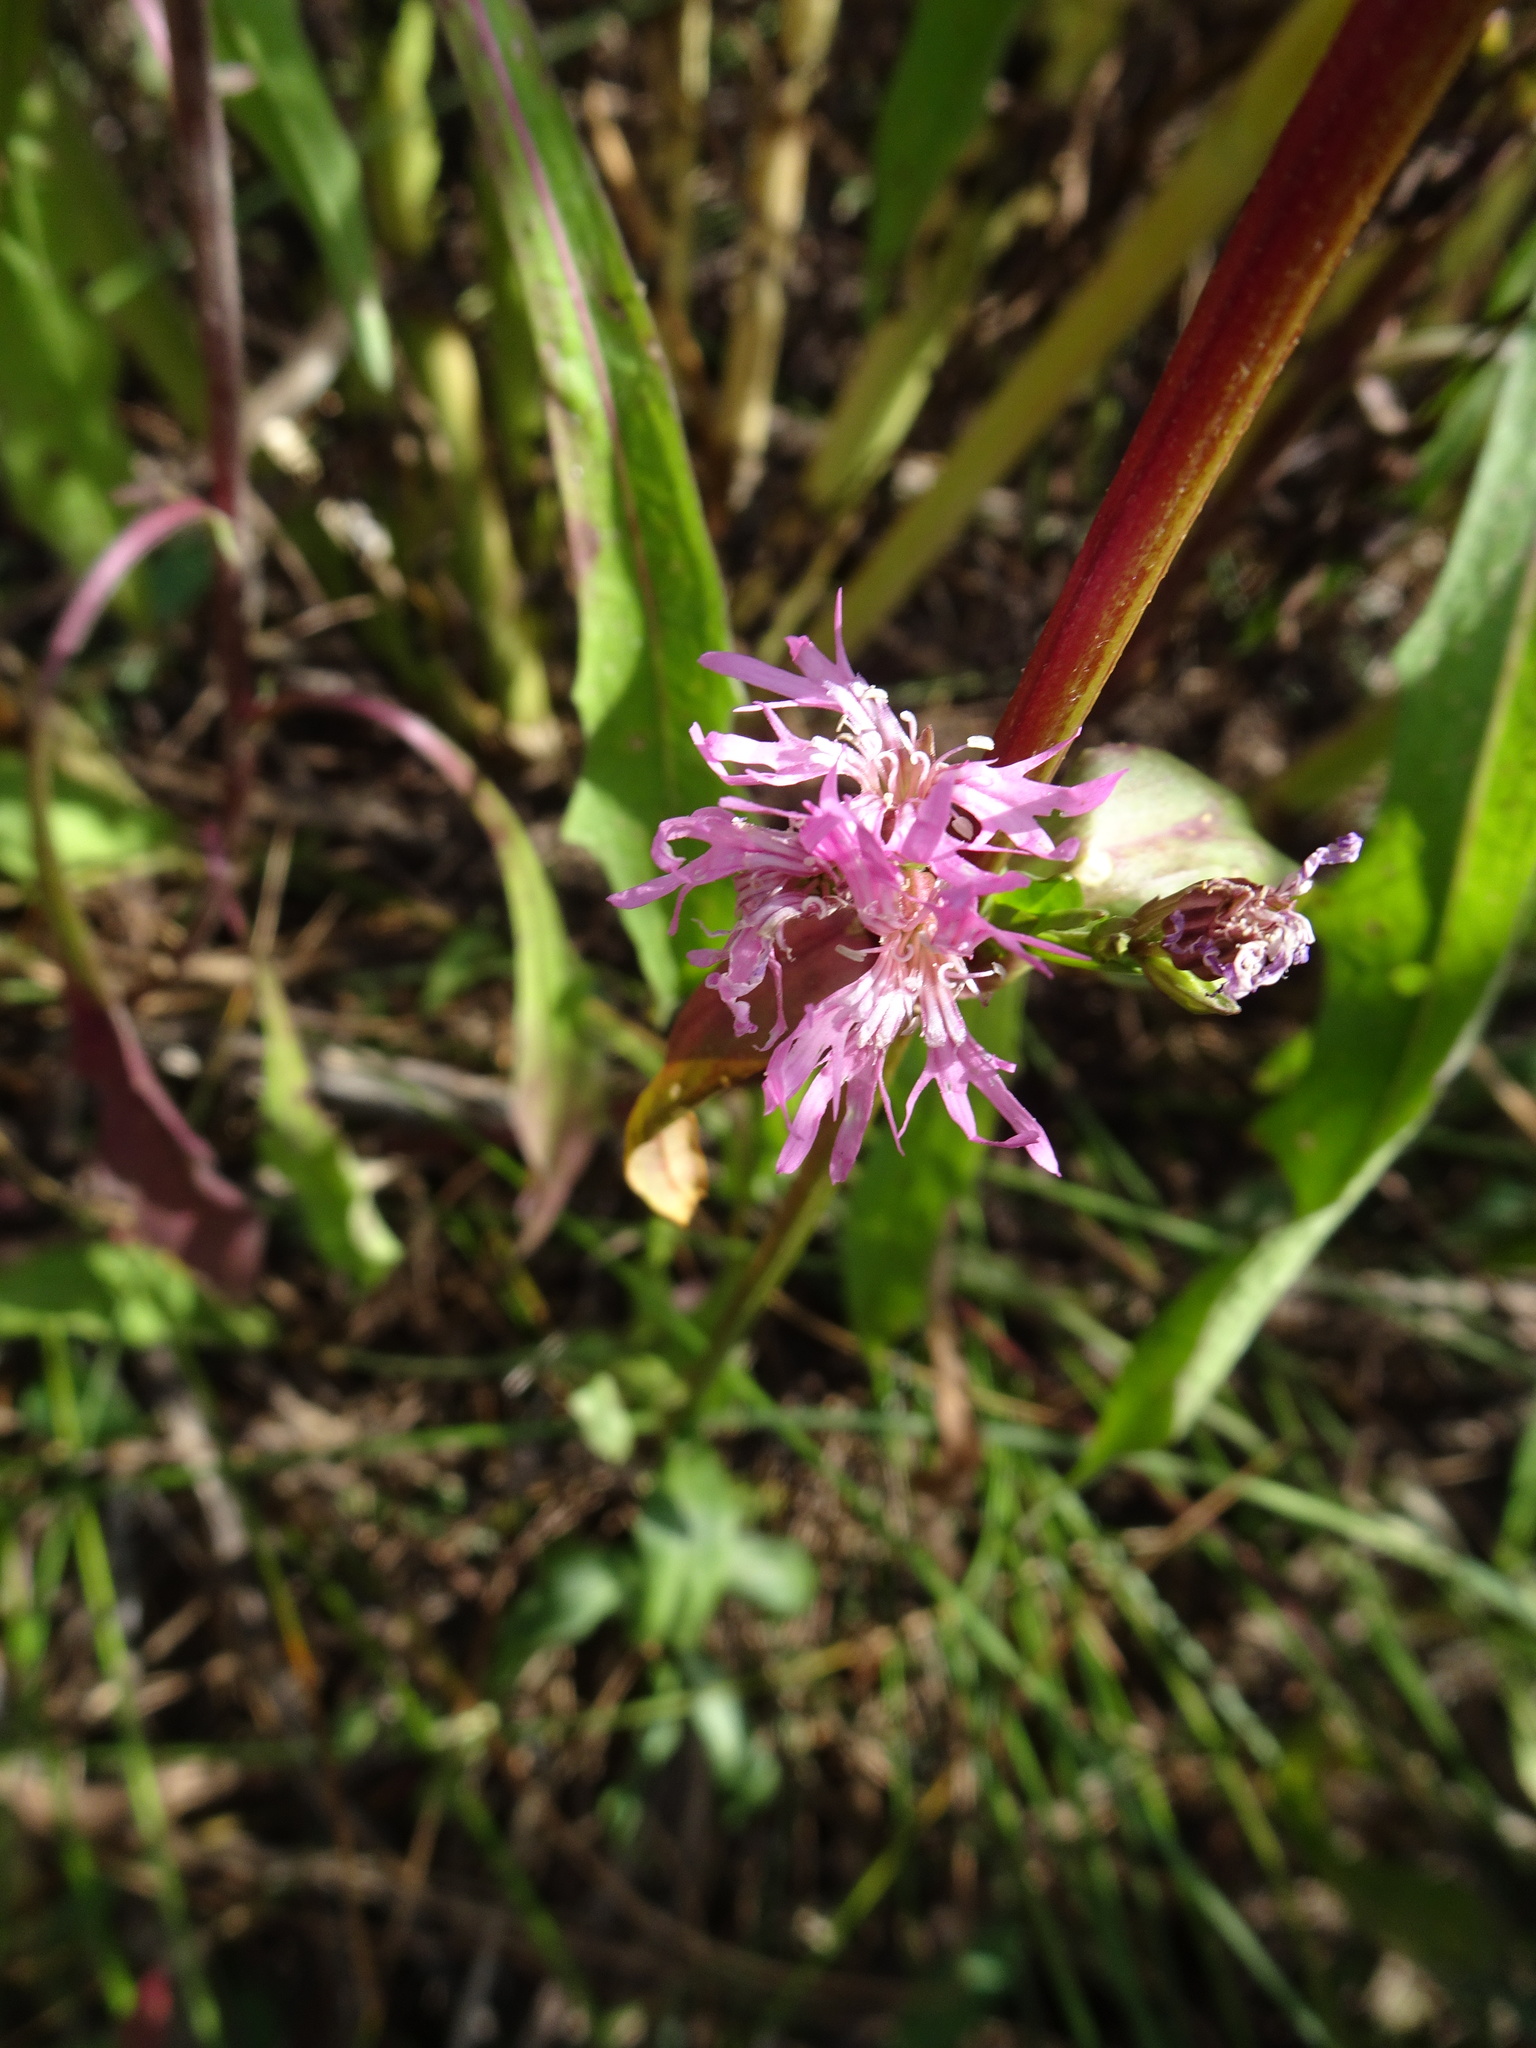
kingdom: Plantae
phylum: Tracheophyta
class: Magnoliopsida
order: Caryophyllales
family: Caryophyllaceae
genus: Silene
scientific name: Silene flos-cuculi
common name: Ragged-robin
